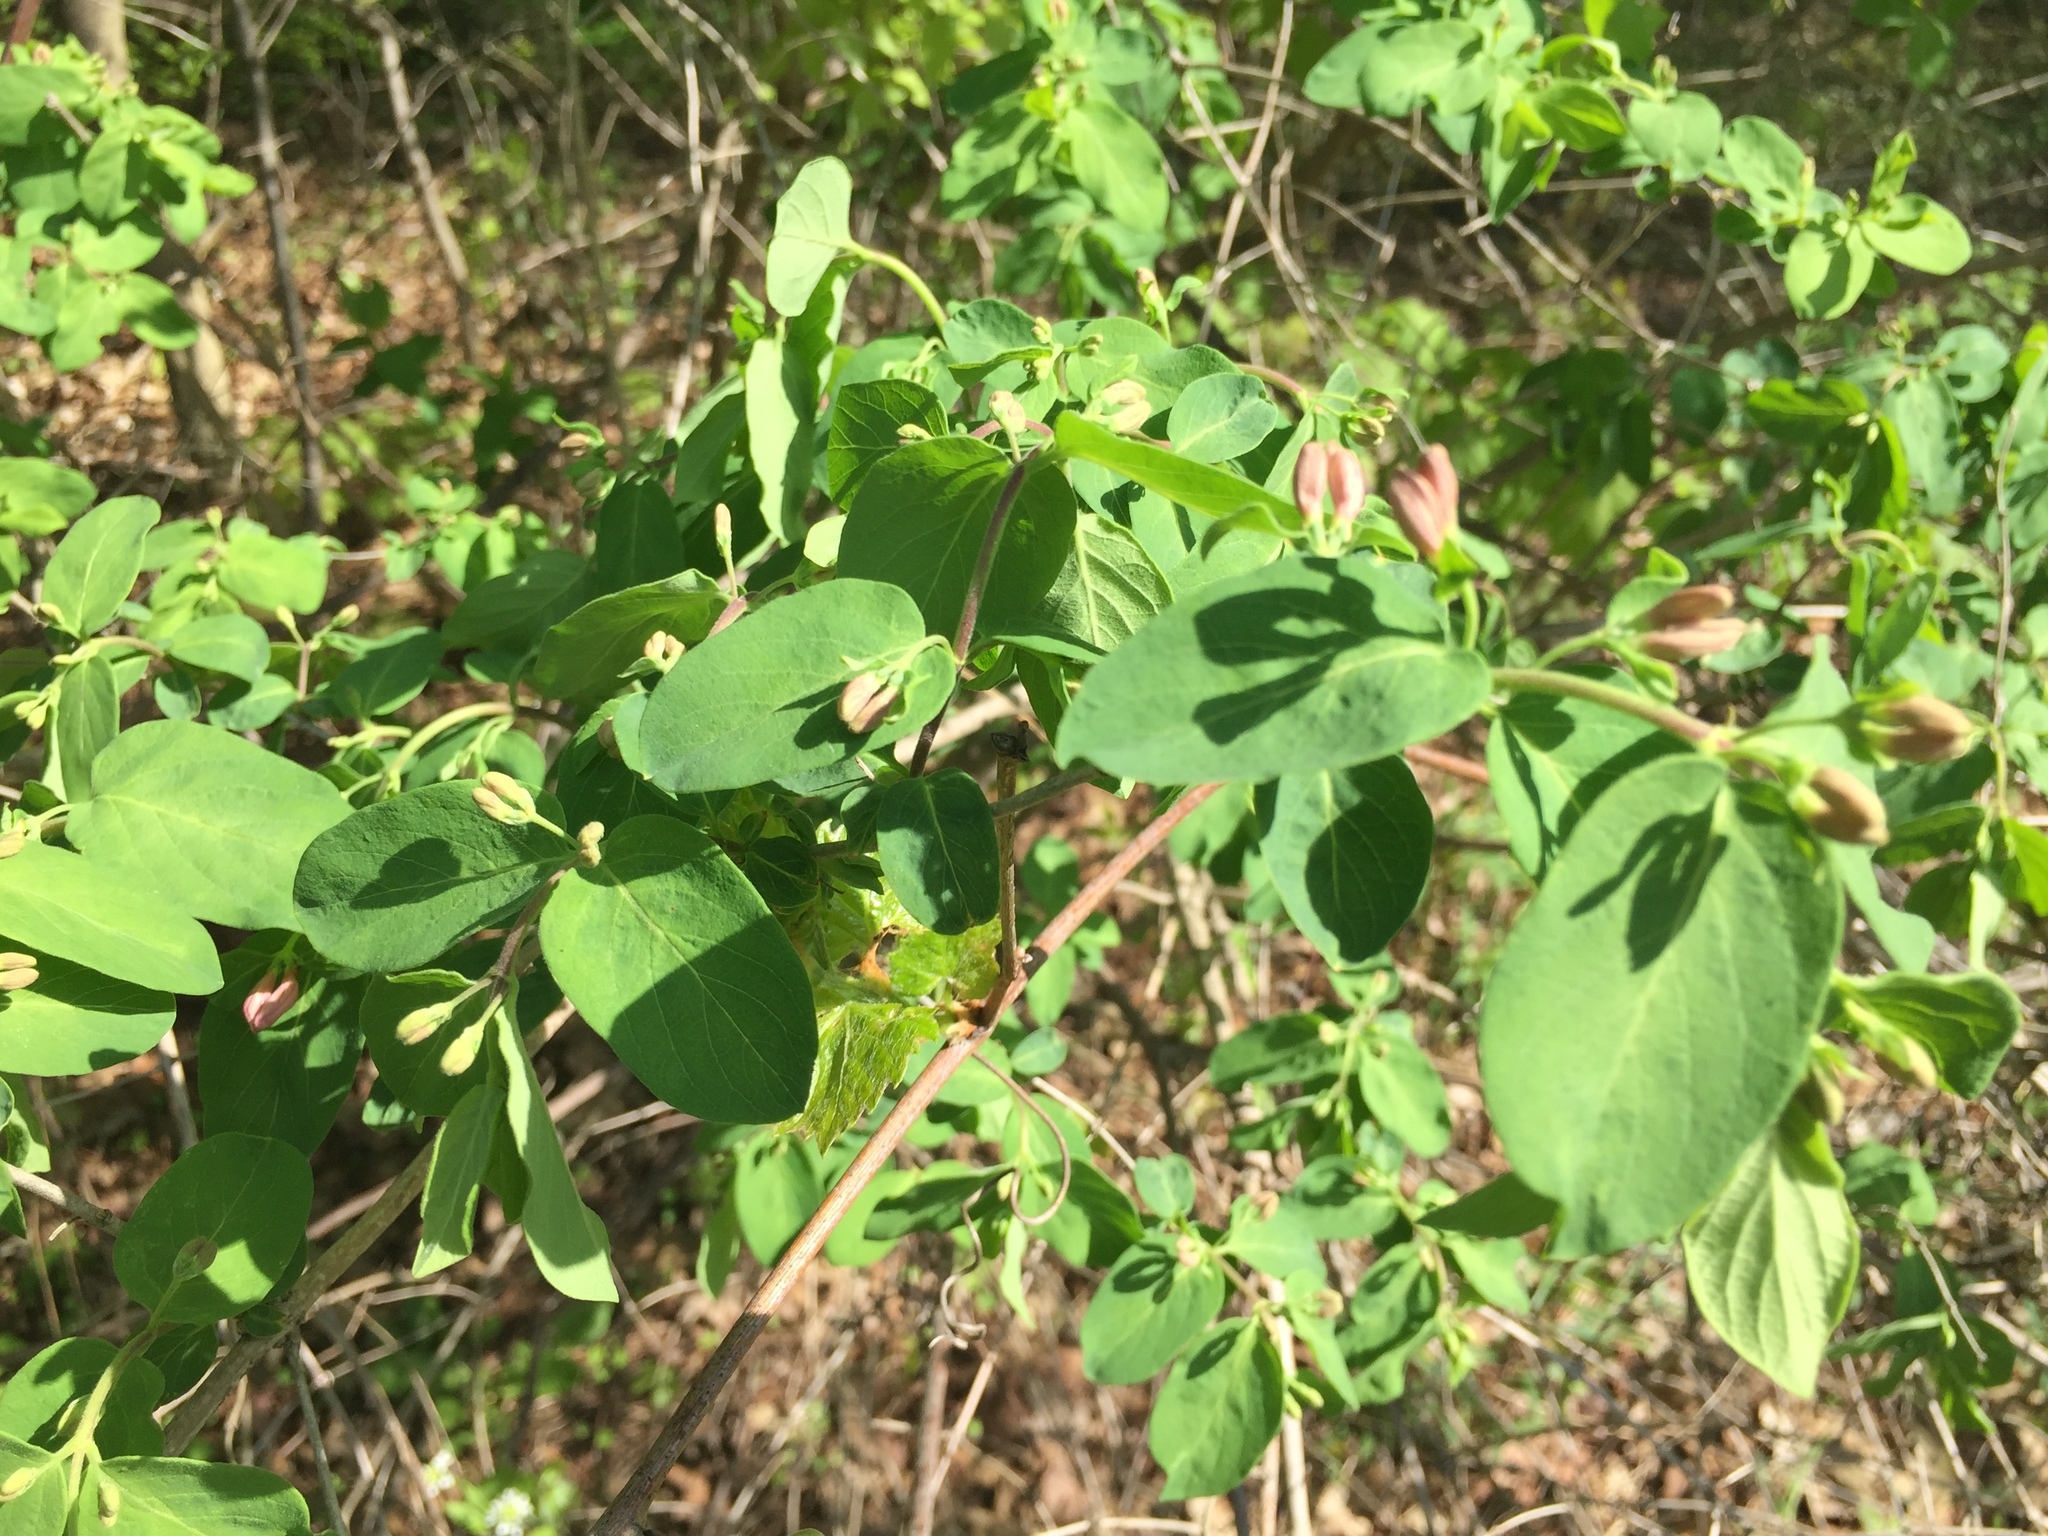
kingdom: Plantae
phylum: Tracheophyta
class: Magnoliopsida
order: Dipsacales
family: Caprifoliaceae
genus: Lonicera
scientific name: Lonicera bella
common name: Bell's honeysuckle
